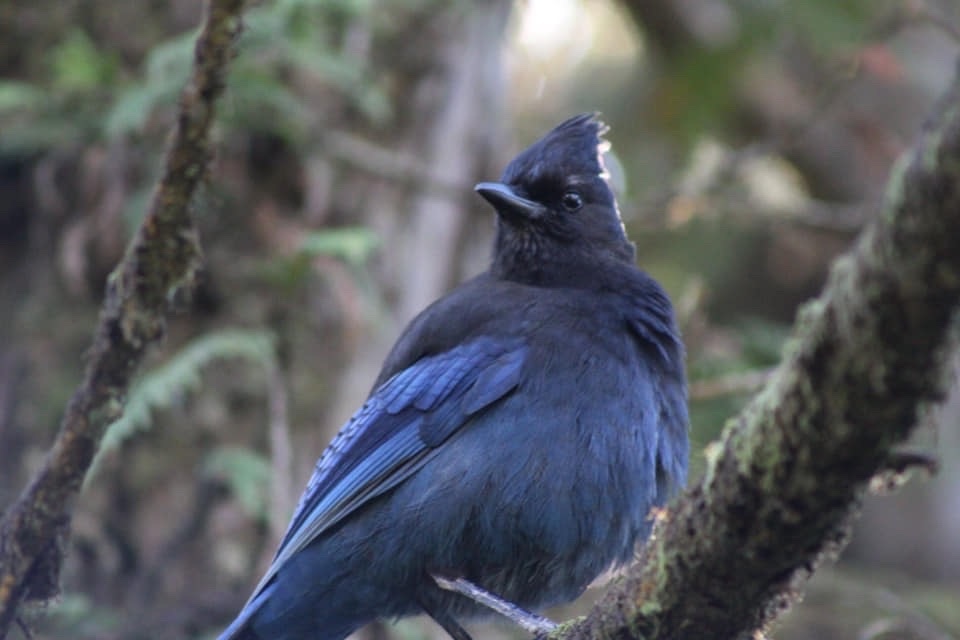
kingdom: Animalia
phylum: Chordata
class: Aves
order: Passeriformes
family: Corvidae
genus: Cyanocitta
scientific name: Cyanocitta stelleri
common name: Steller's jay
